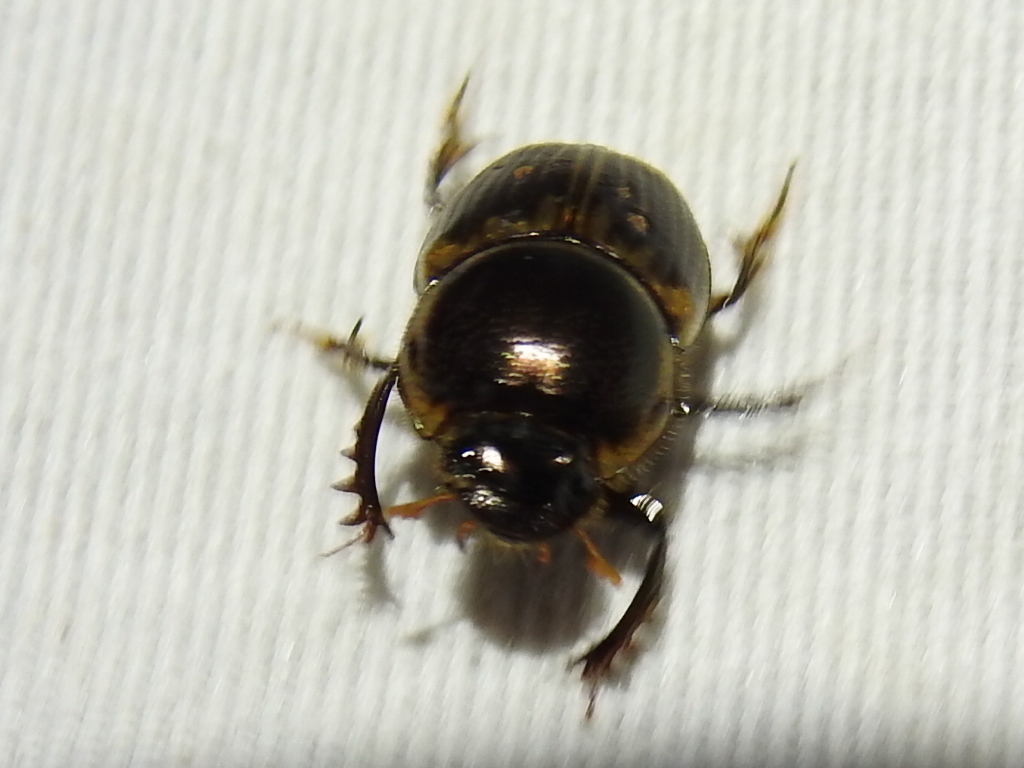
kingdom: Animalia
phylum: Arthropoda
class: Insecta
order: Coleoptera
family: Scarabaeidae
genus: Digitonthophagus
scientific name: Digitonthophagus gazella
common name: Brown dung beetle
